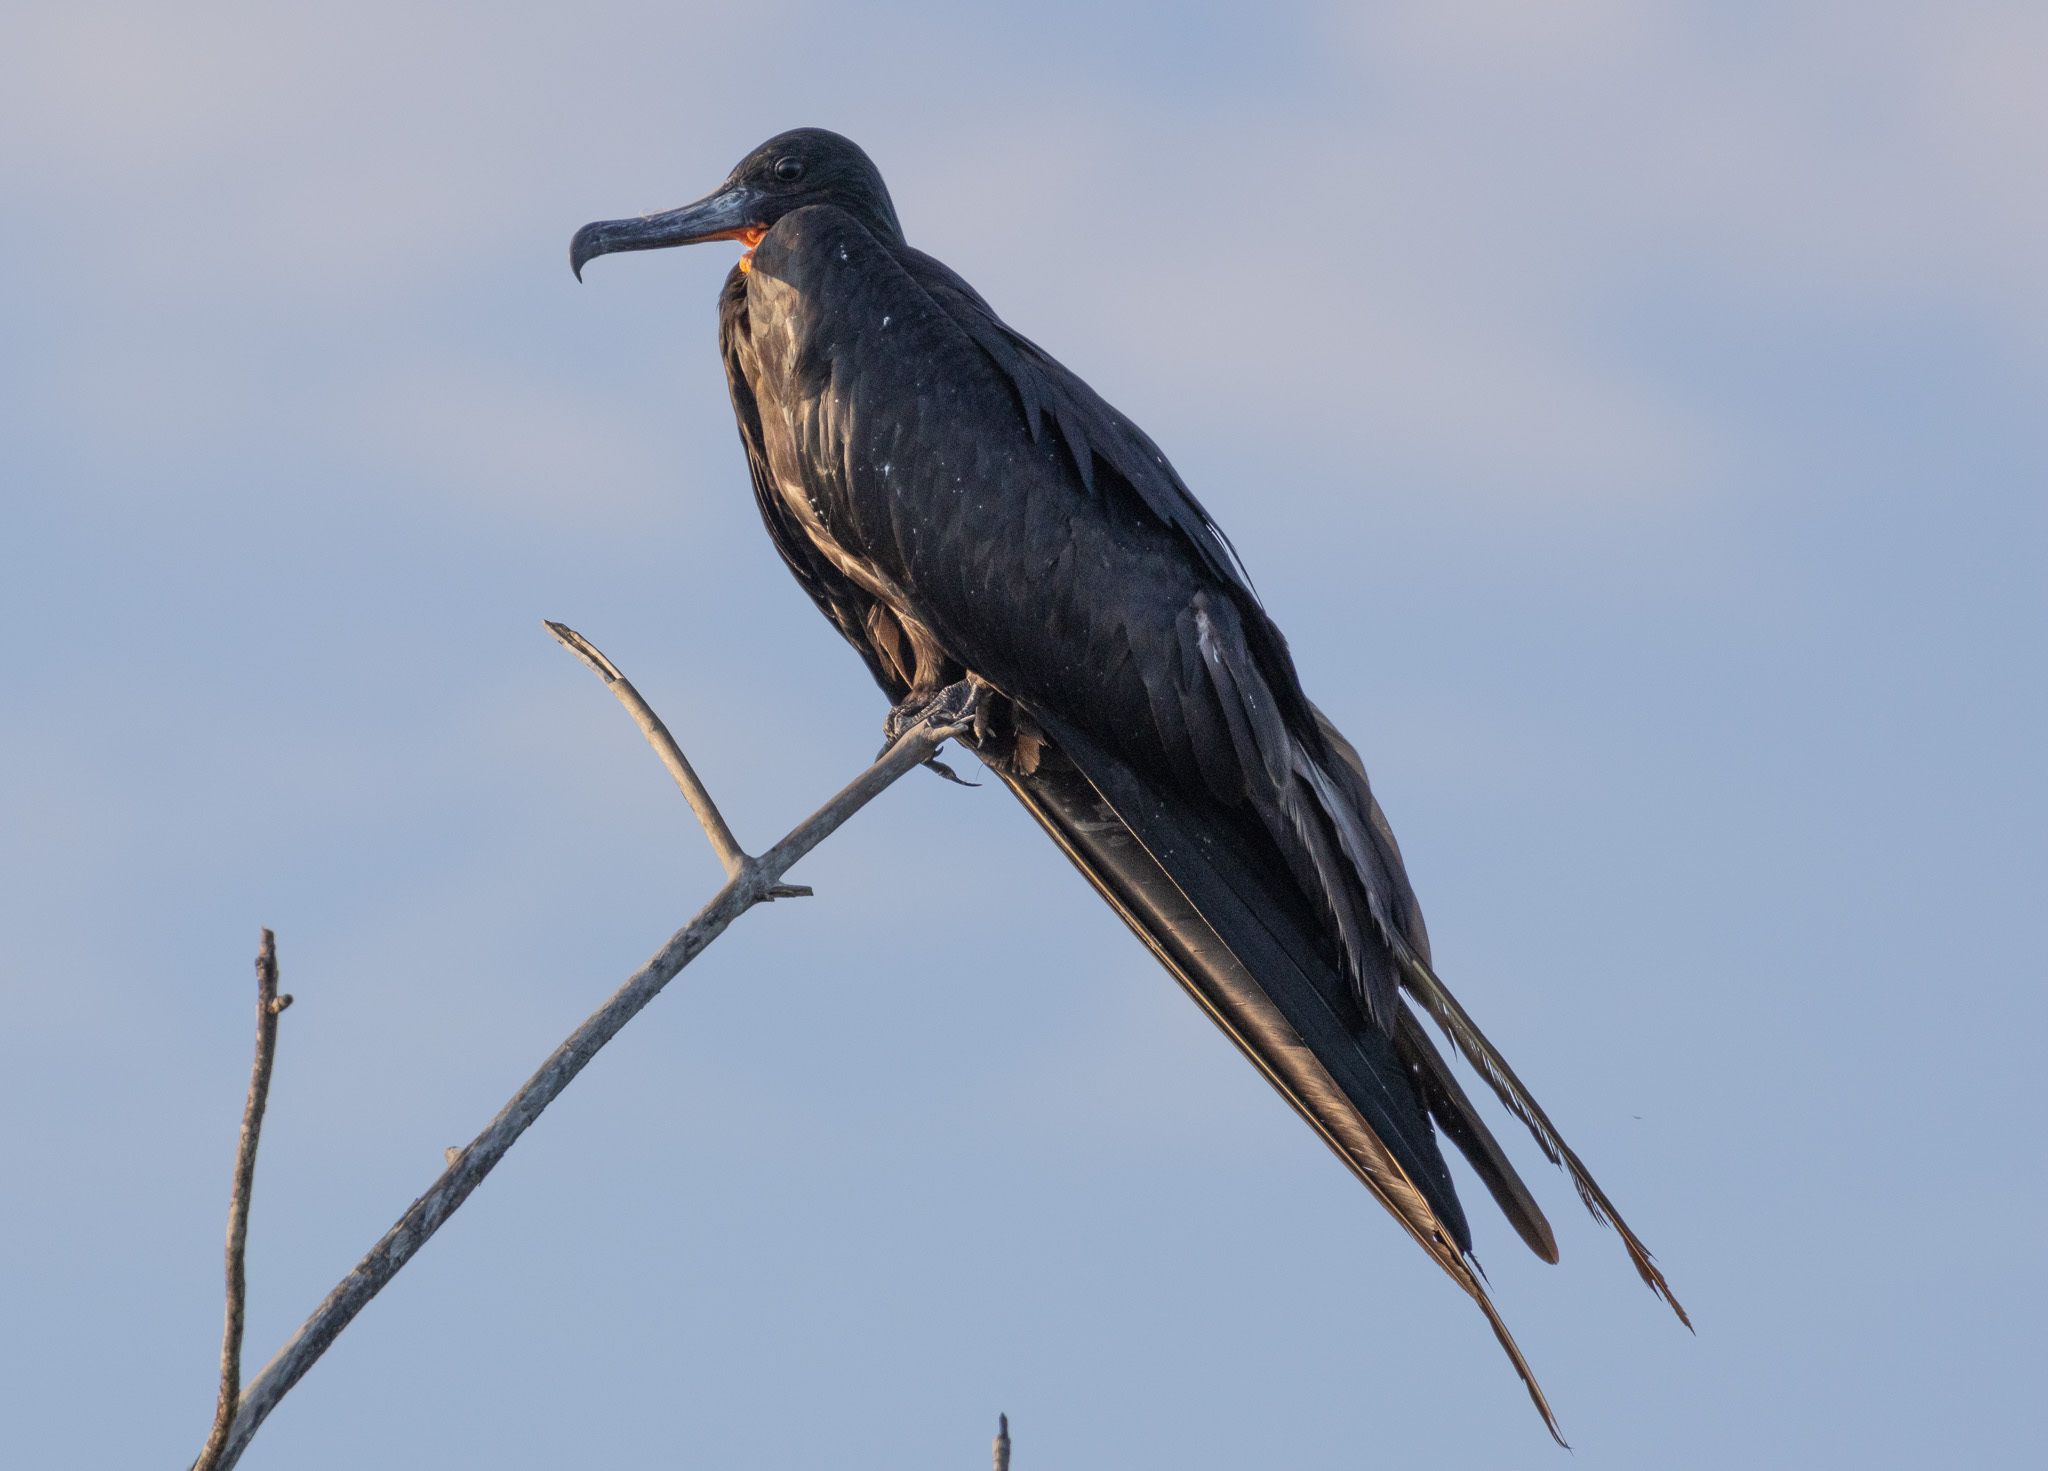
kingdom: Animalia
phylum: Chordata
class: Aves
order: Suliformes
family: Fregatidae
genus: Fregata
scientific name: Fregata magnificens
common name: Magnificent frigatebird
